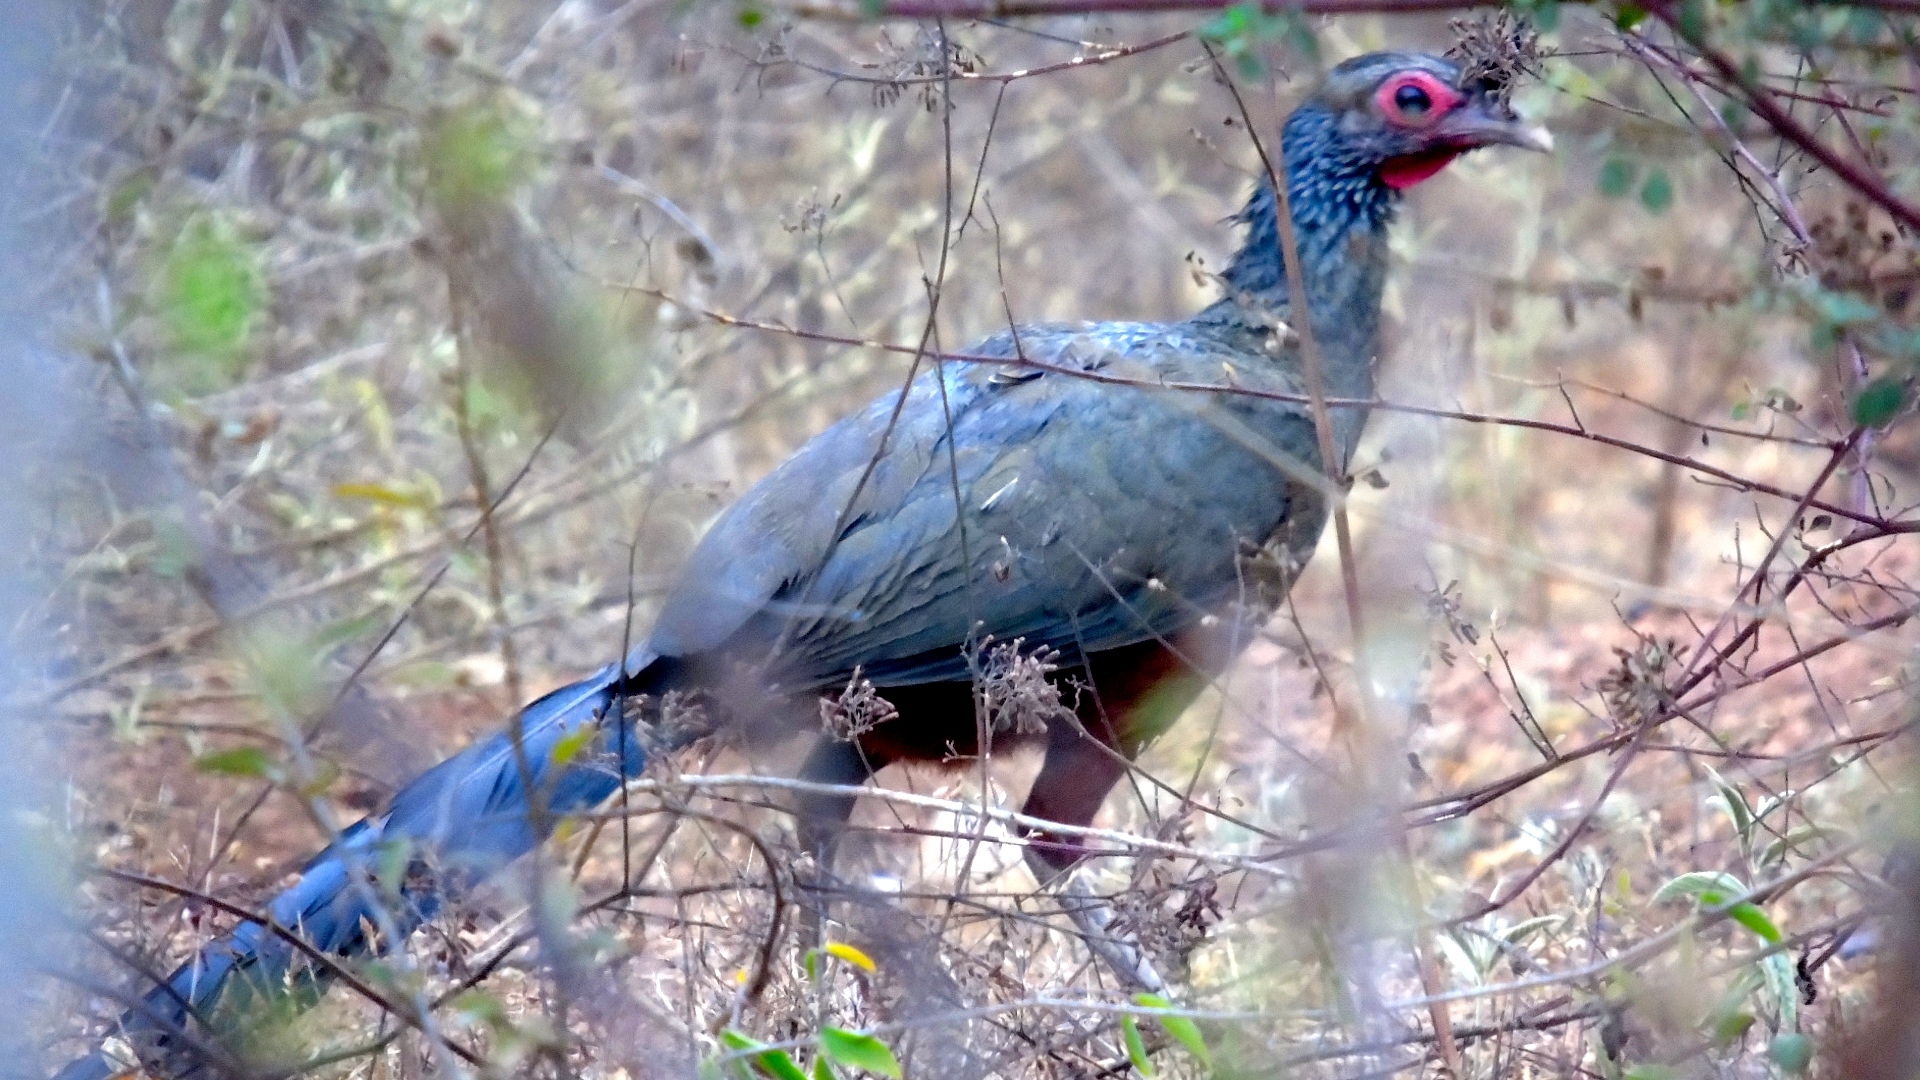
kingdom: Animalia
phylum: Chordata
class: Aves
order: Galliformes
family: Cracidae
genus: Ortalis
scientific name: Ortalis wagleri
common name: Rufous-bellied chachalaca
